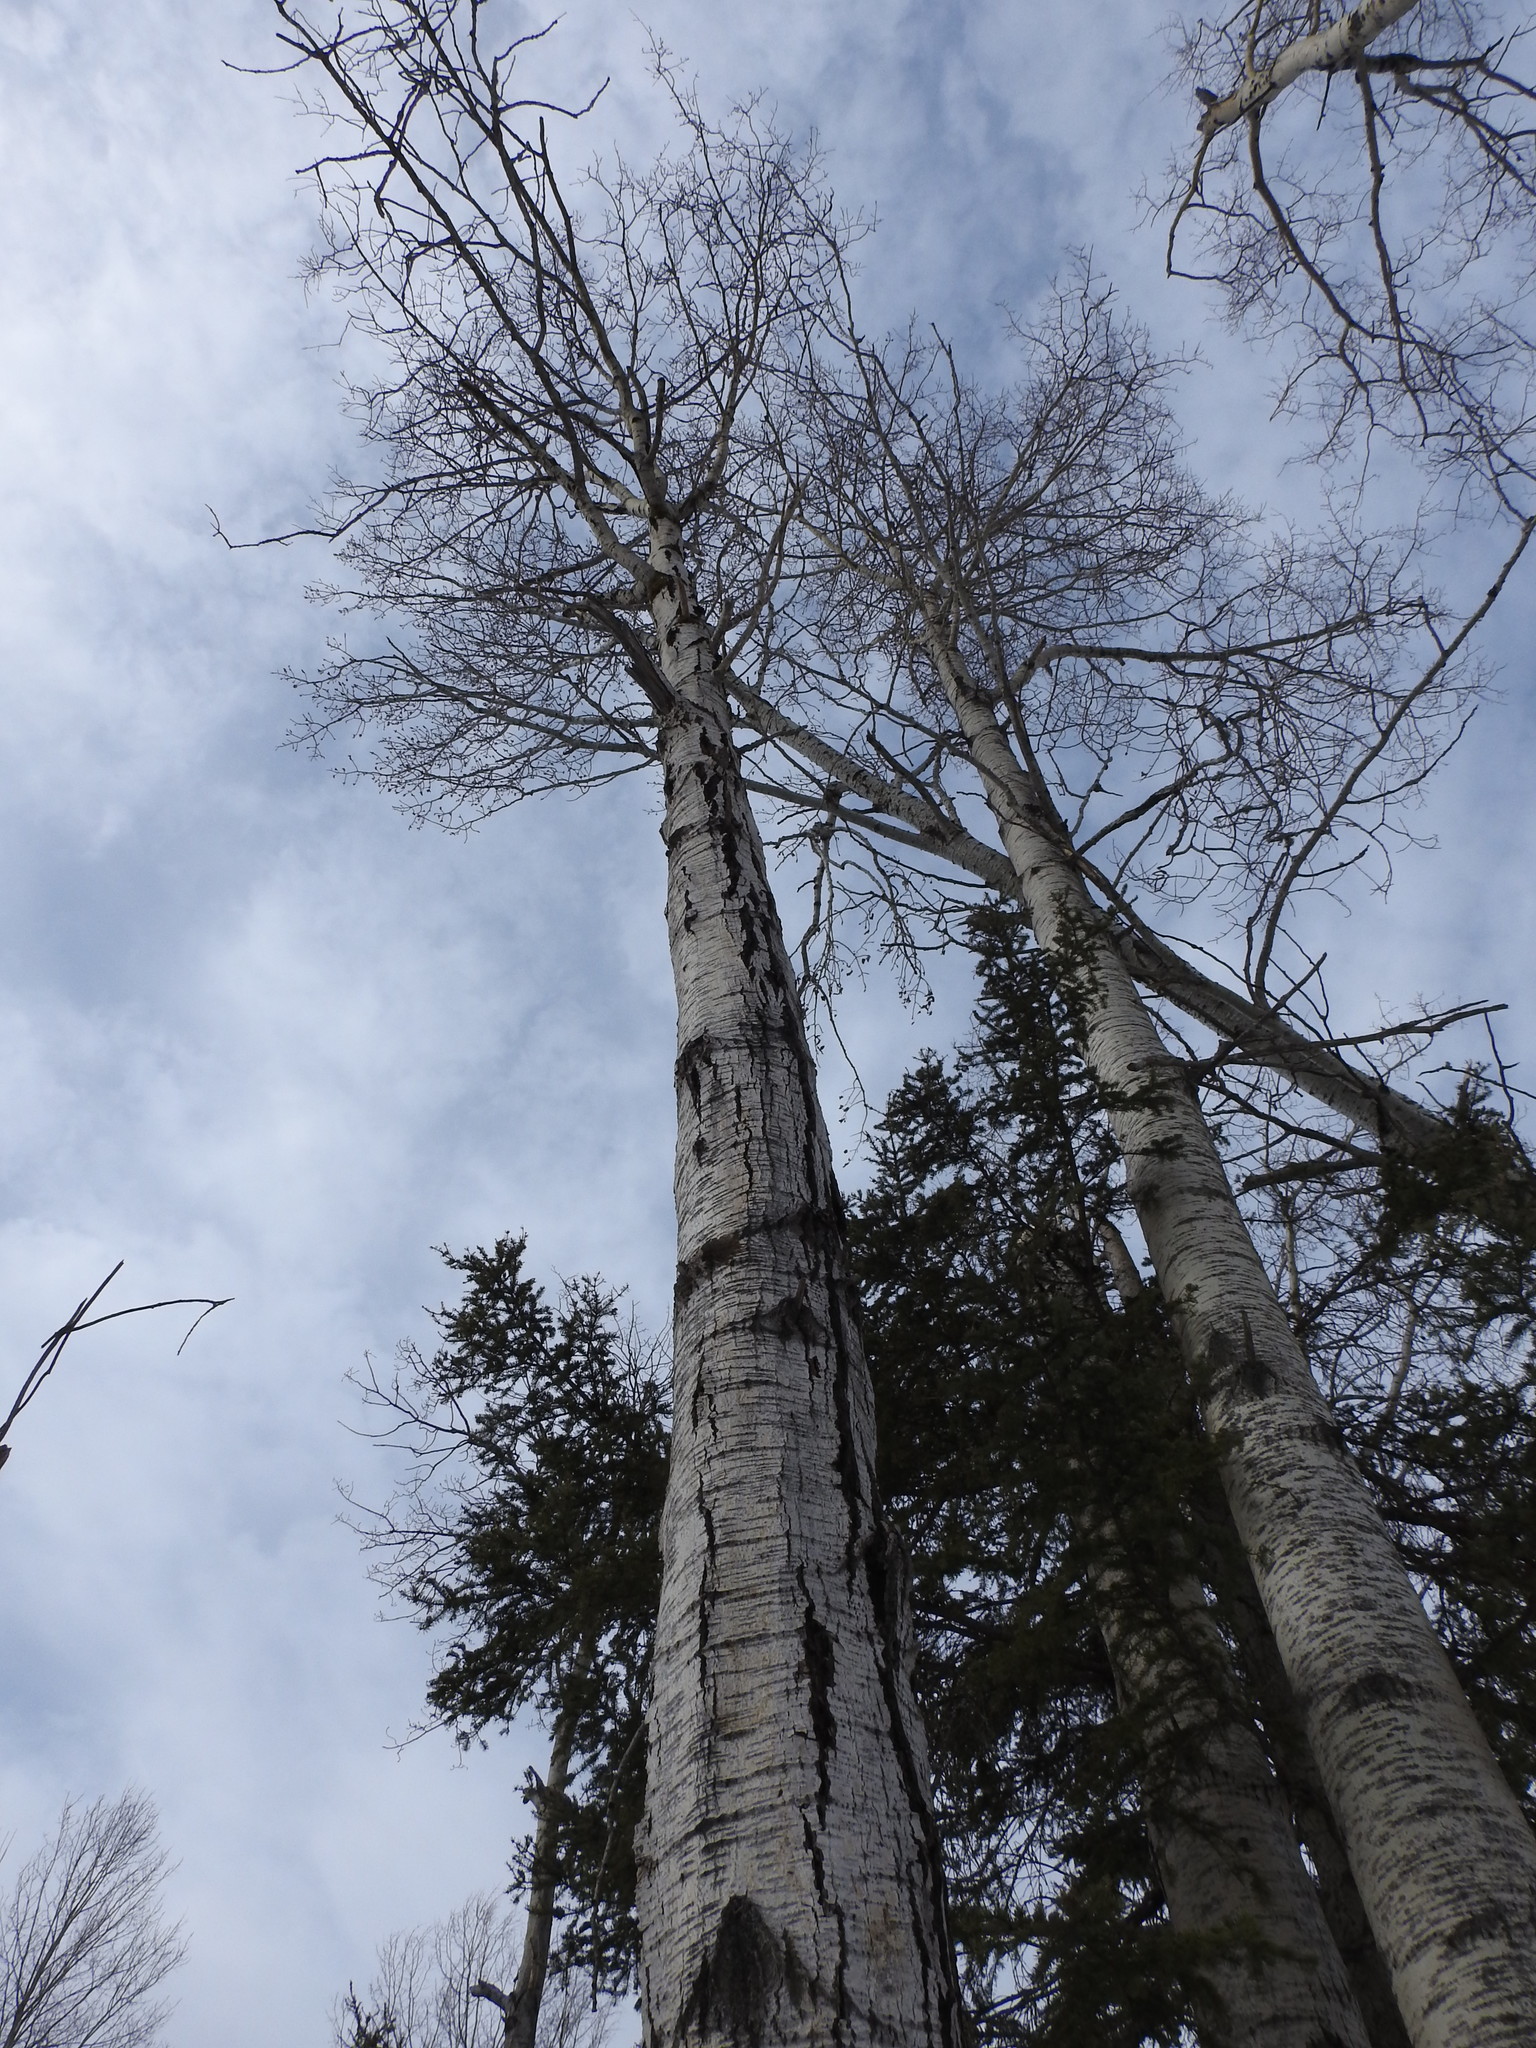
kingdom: Plantae
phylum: Tracheophyta
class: Magnoliopsida
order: Malpighiales
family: Salicaceae
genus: Populus
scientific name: Populus tremuloides
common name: Quaking aspen
